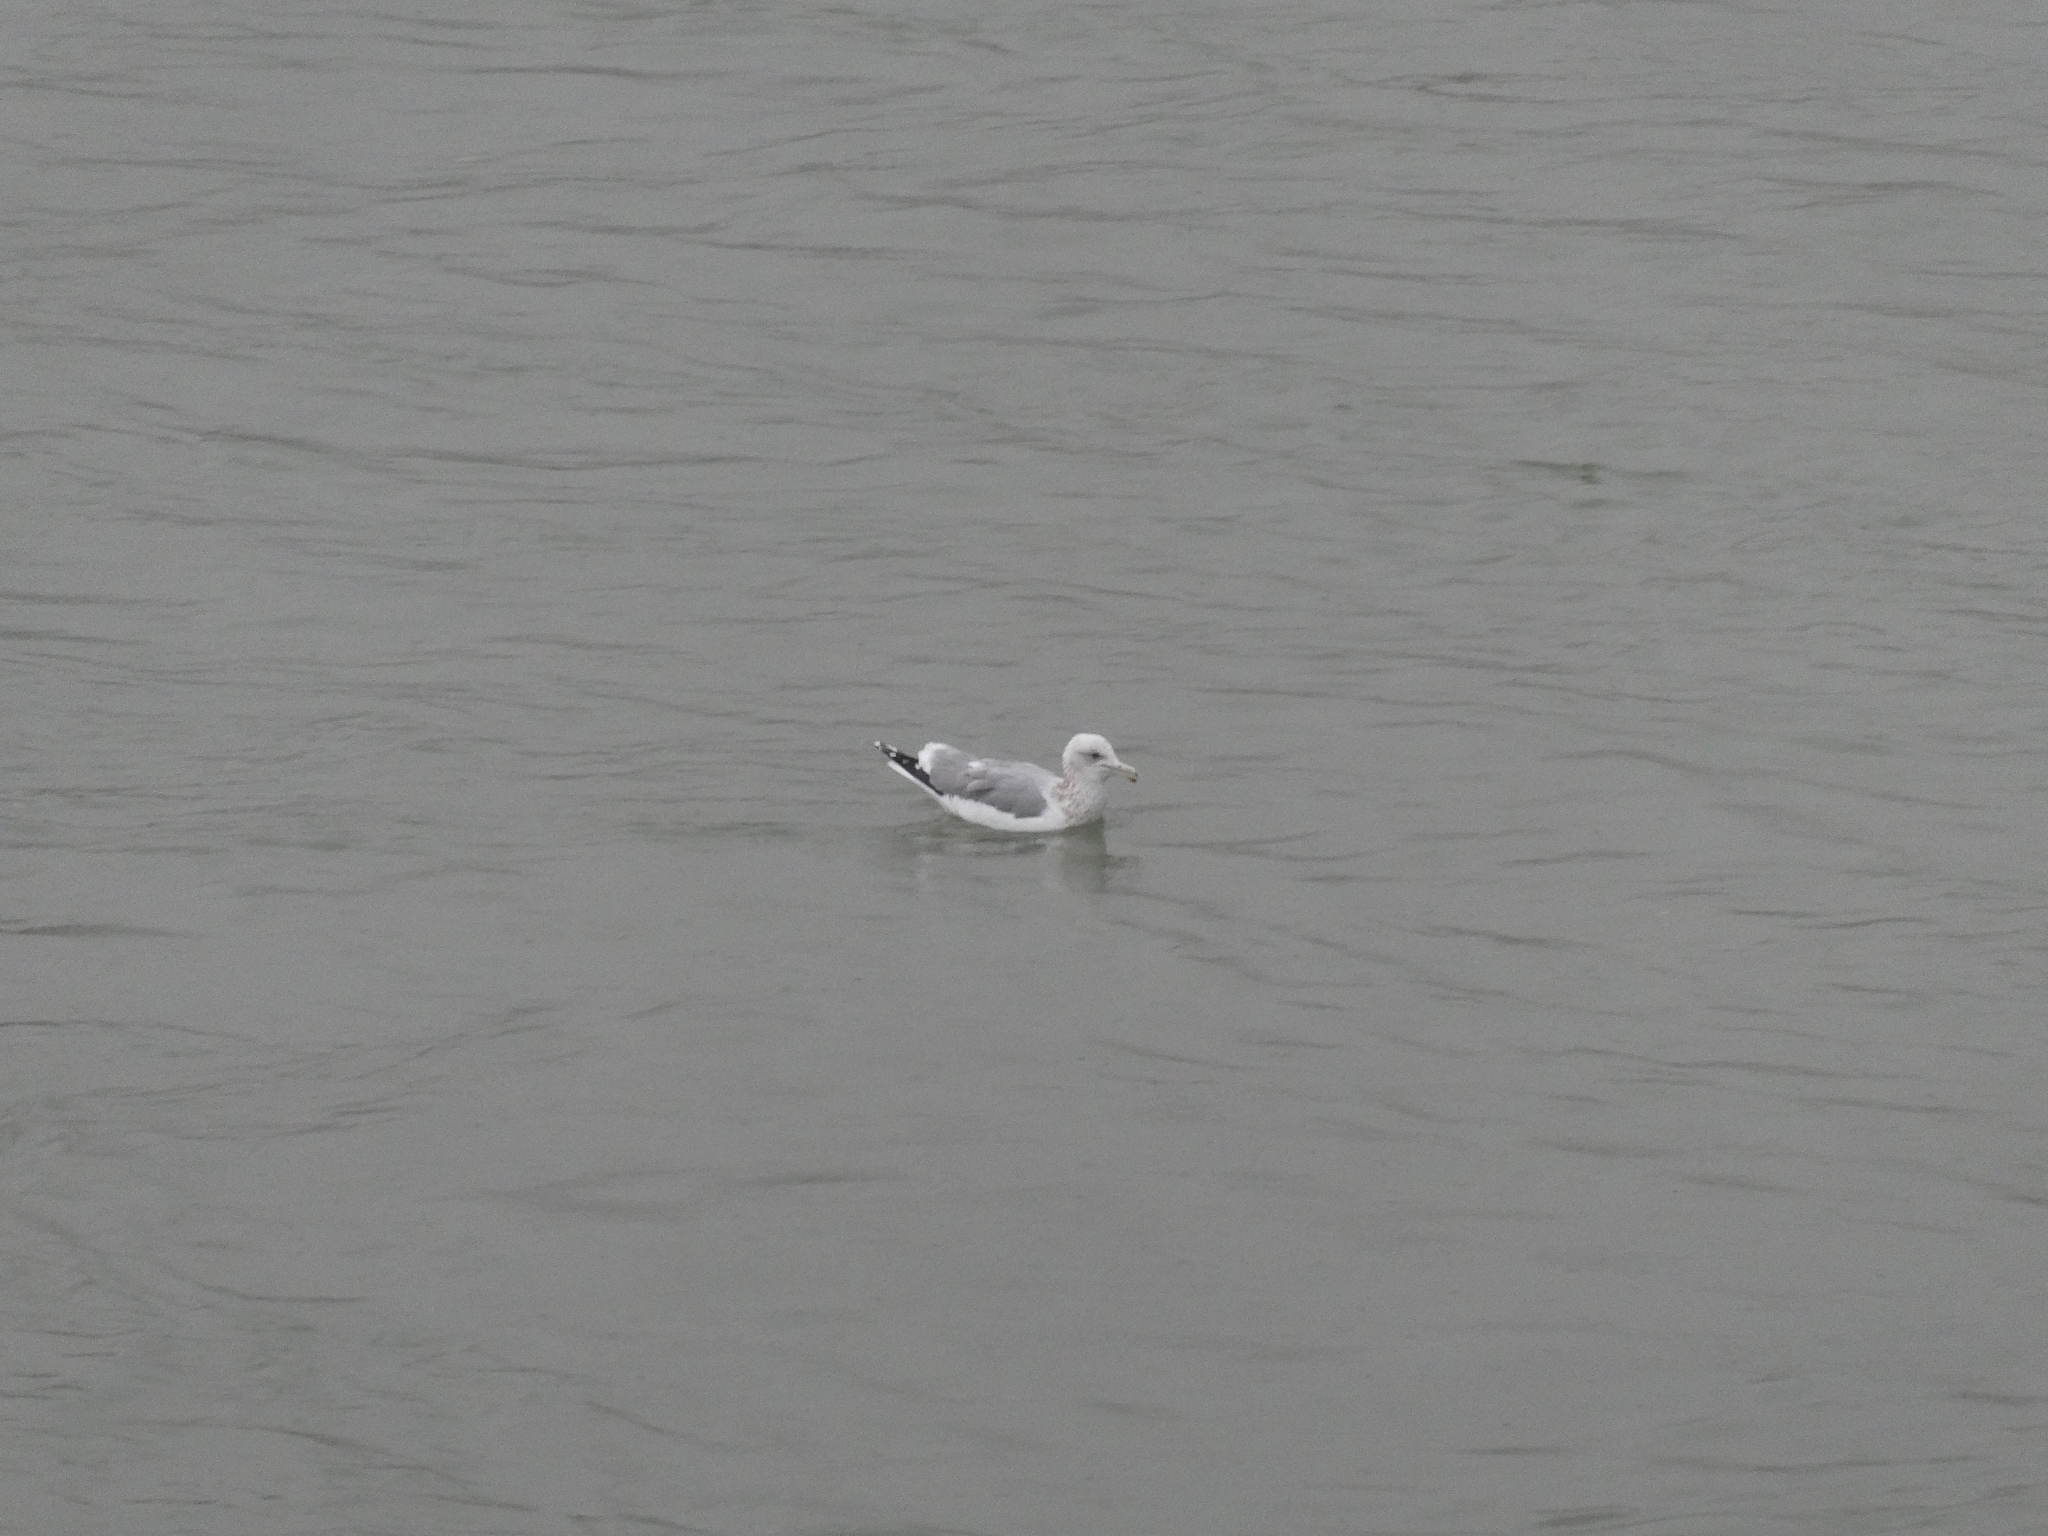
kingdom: Animalia
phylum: Chordata
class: Aves
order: Charadriiformes
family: Laridae
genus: Larus
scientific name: Larus californicus
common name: California gull
